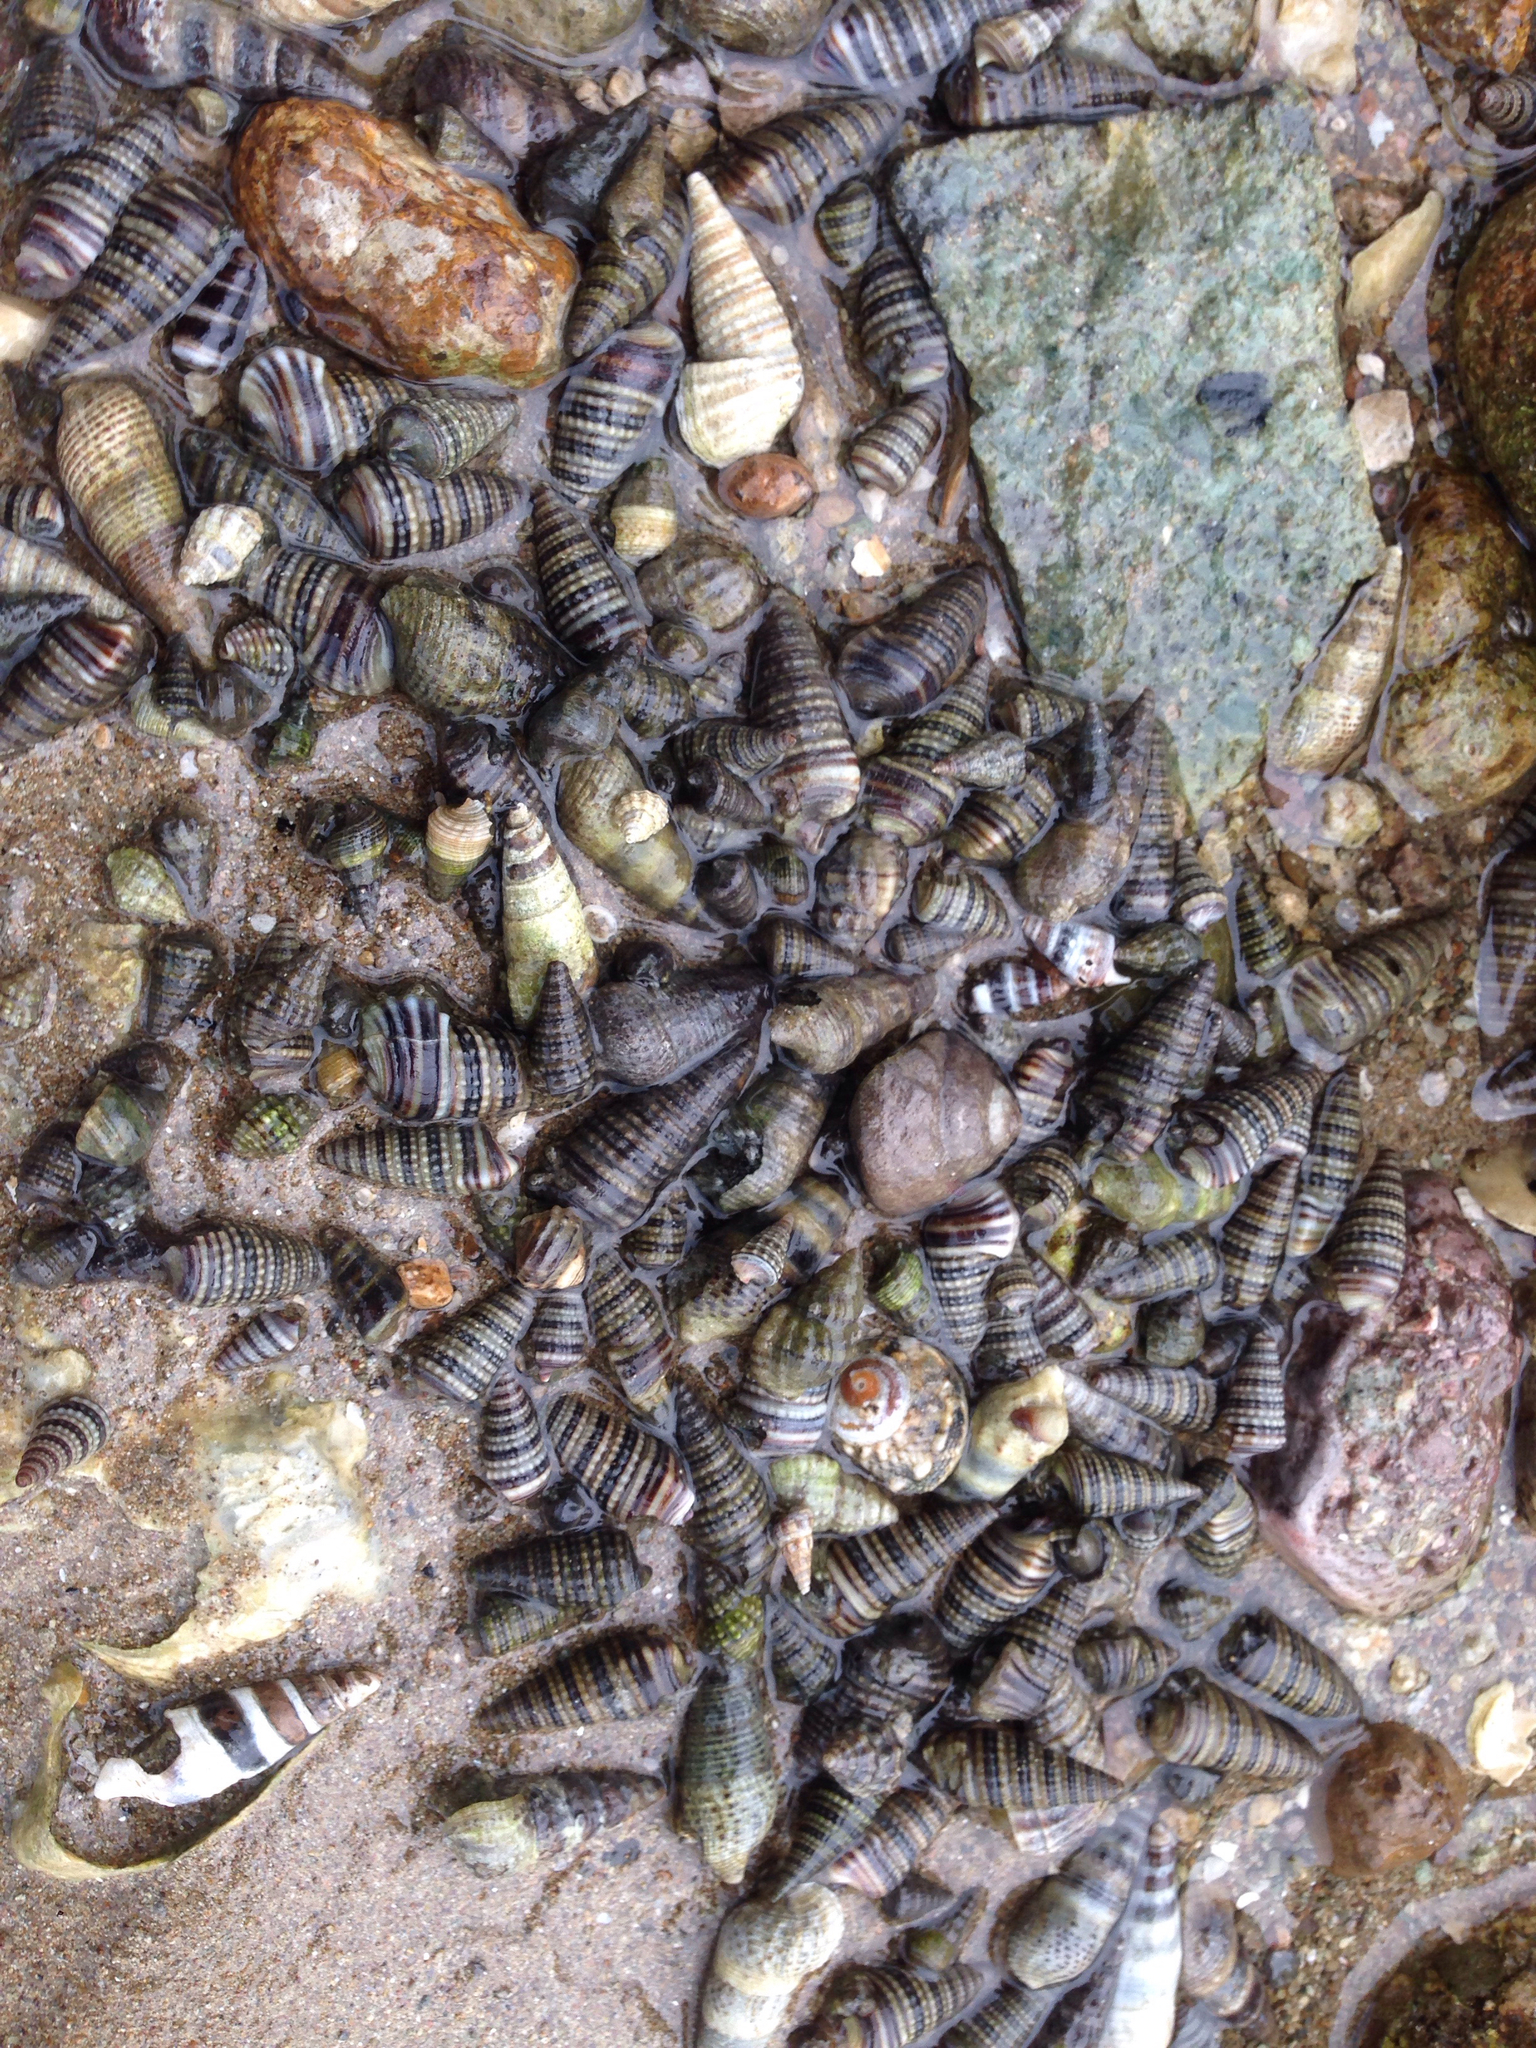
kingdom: Animalia
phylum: Mollusca
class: Gastropoda
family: Potamididae
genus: Pirenella
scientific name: Pirenella cingulata
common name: Girdled horn shell
